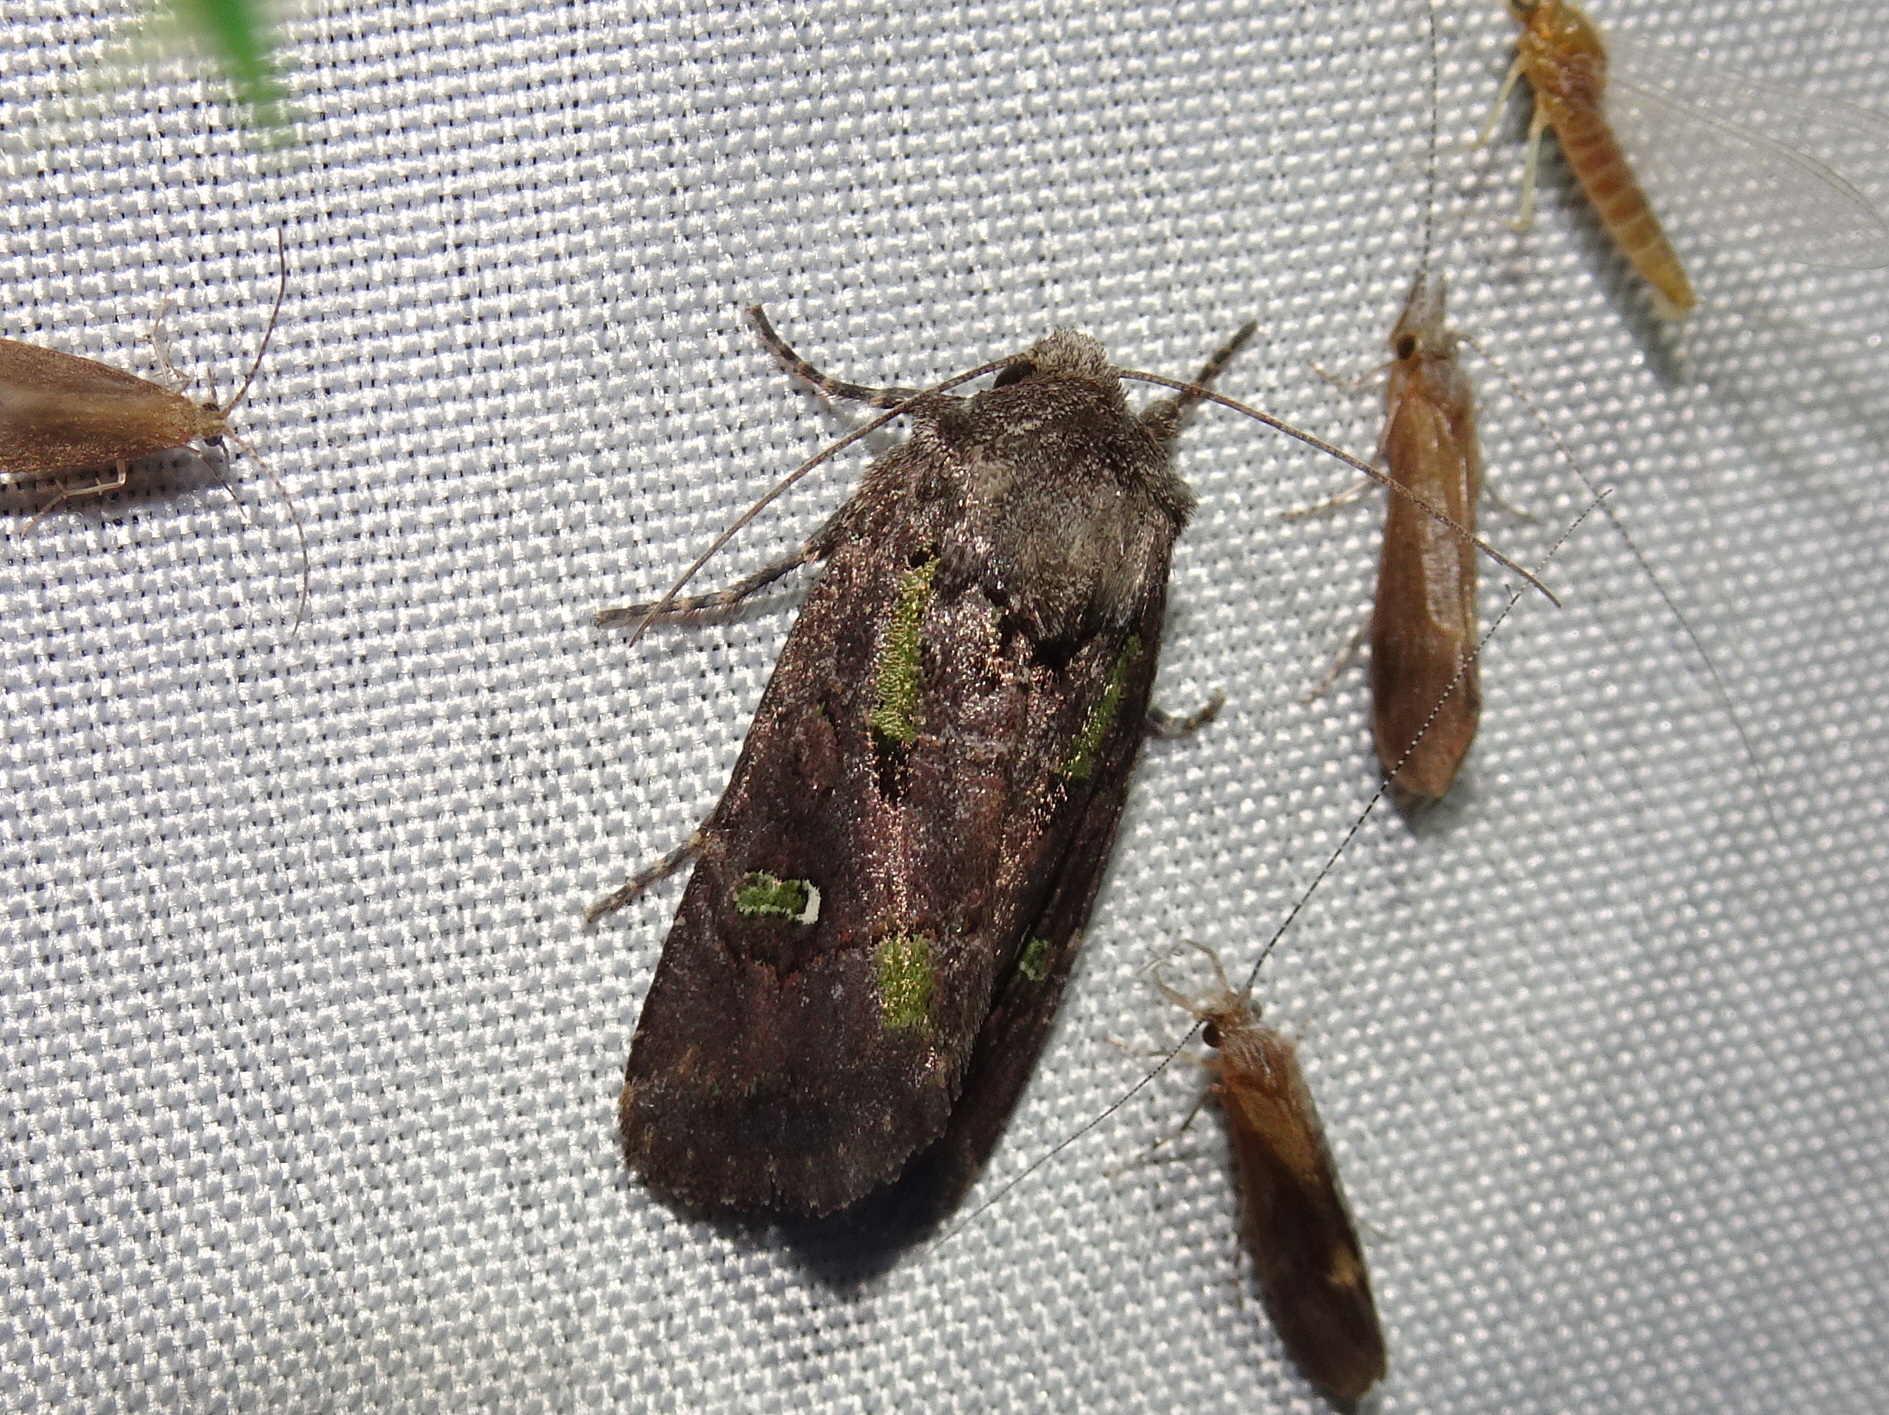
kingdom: Animalia
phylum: Arthropoda
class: Insecta
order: Lepidoptera
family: Noctuidae
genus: Lacinipolia
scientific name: Lacinipolia renigera
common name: Kidney-spotted minor
